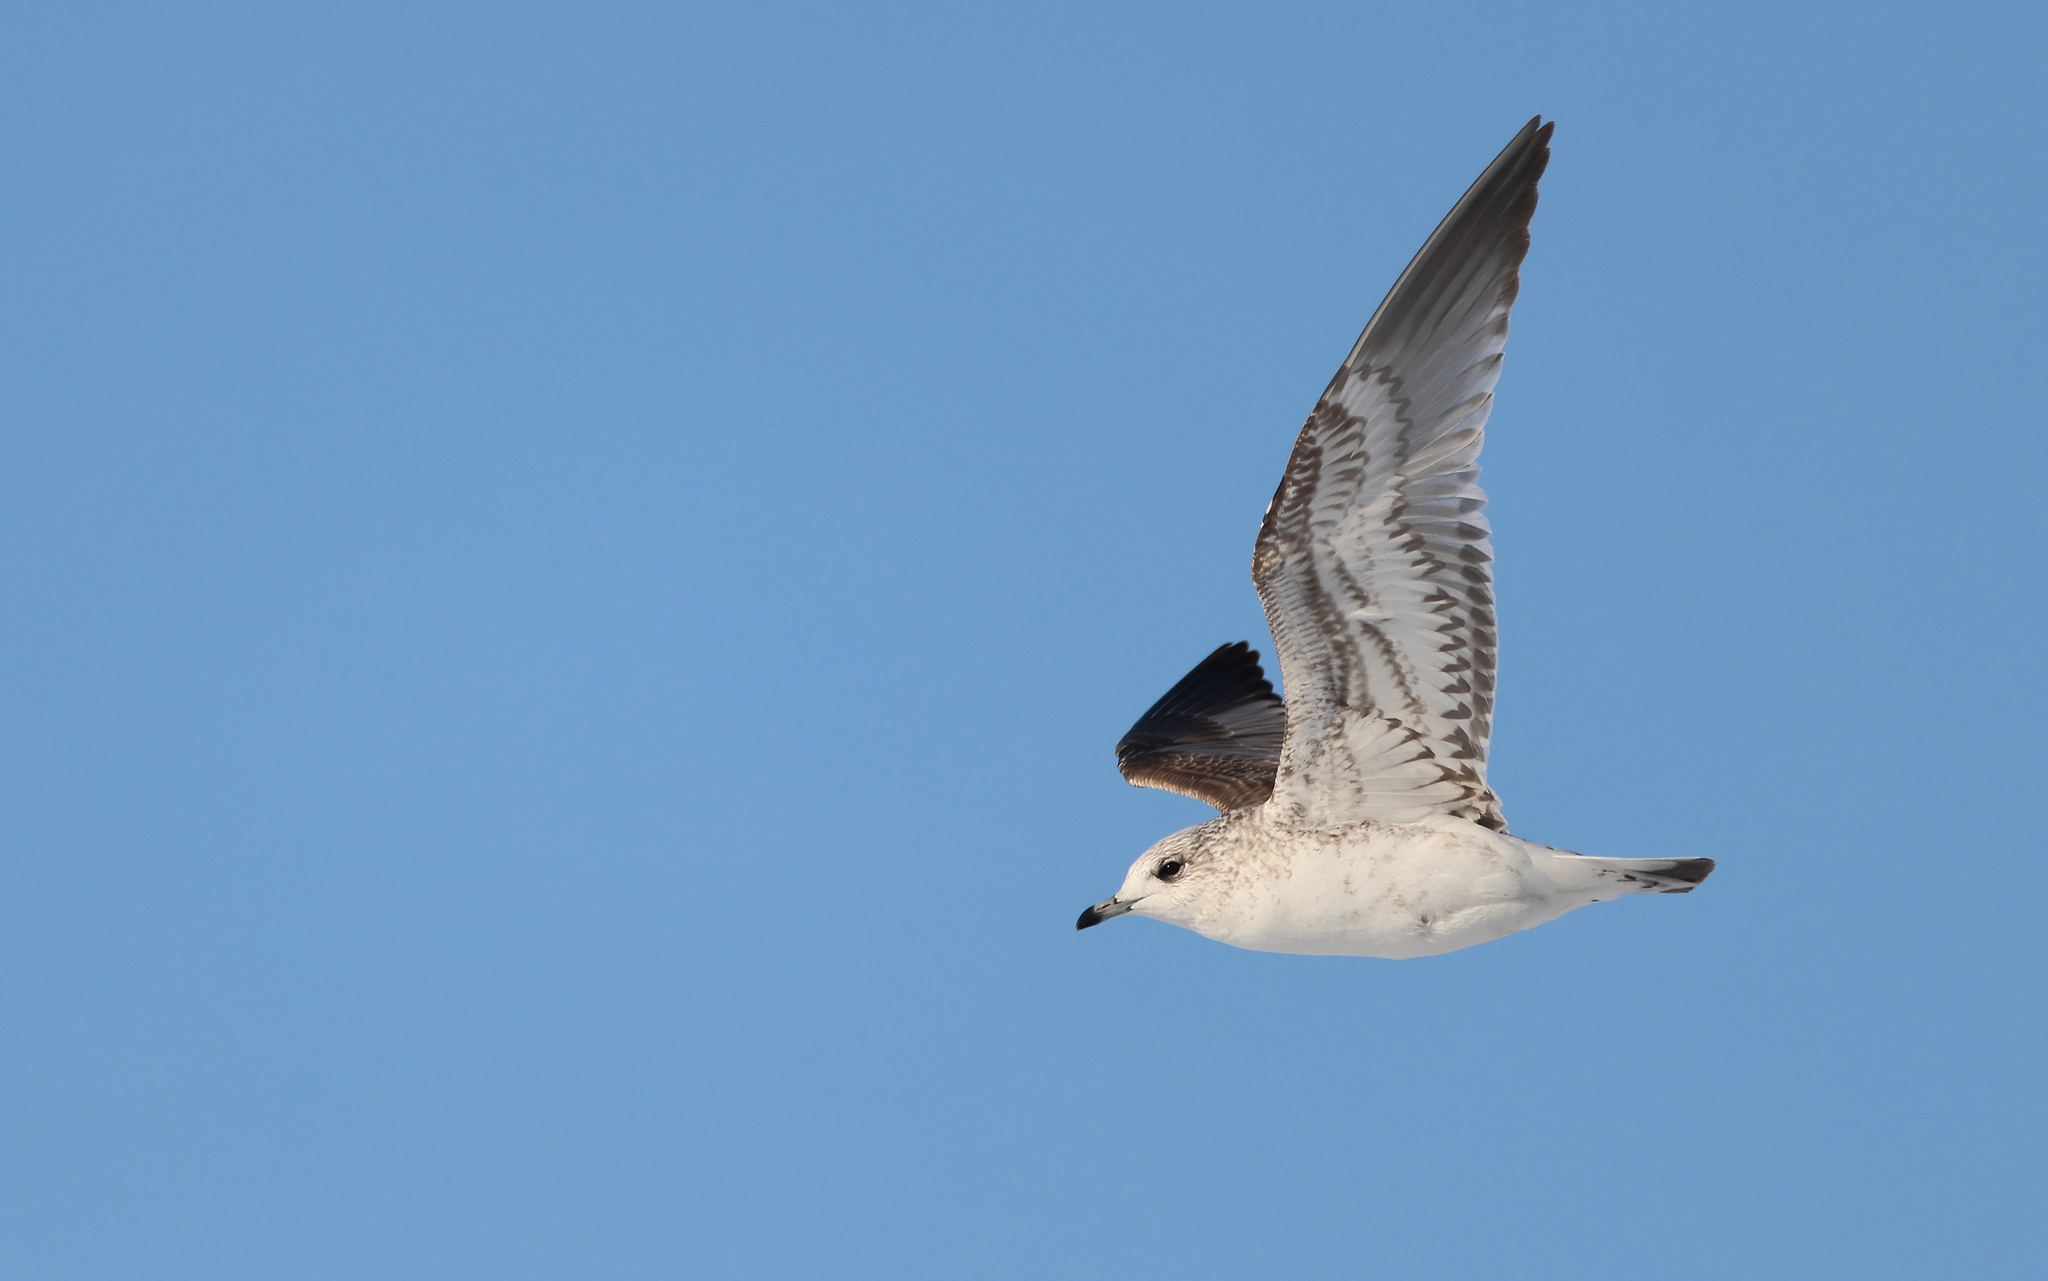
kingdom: Animalia
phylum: Chordata
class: Aves
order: Charadriiformes
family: Laridae
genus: Larus
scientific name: Larus canus
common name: Mew gull
